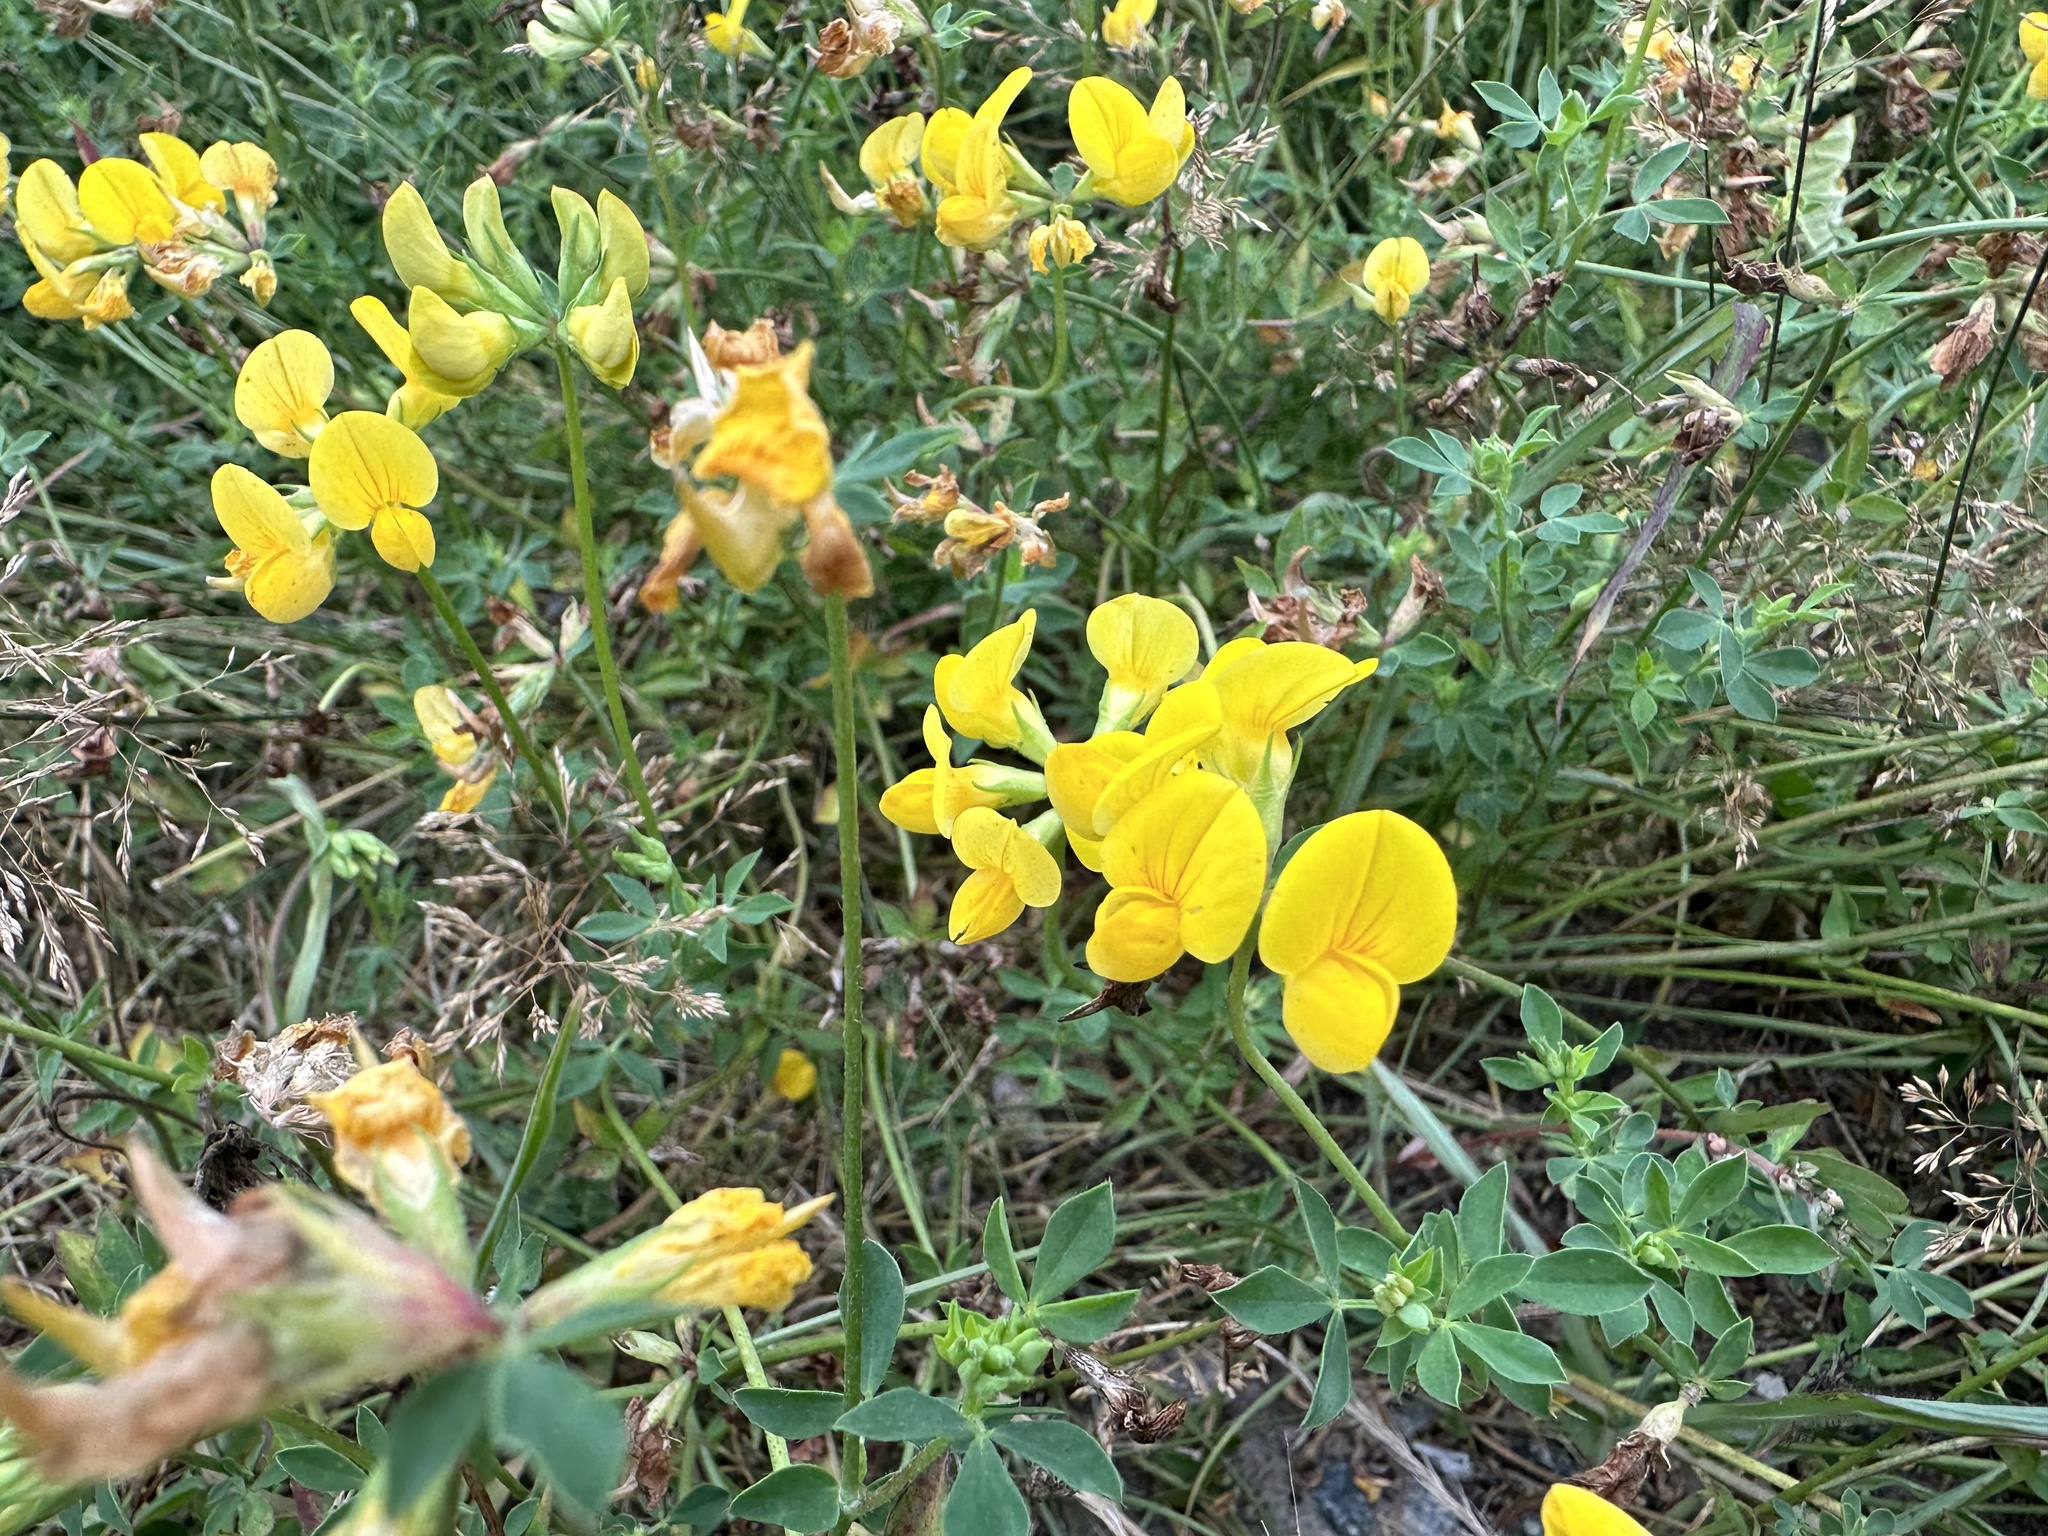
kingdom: Plantae
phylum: Tracheophyta
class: Magnoliopsida
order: Fabales
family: Fabaceae
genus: Lotus
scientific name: Lotus corniculatus
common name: Common bird's-foot-trefoil
